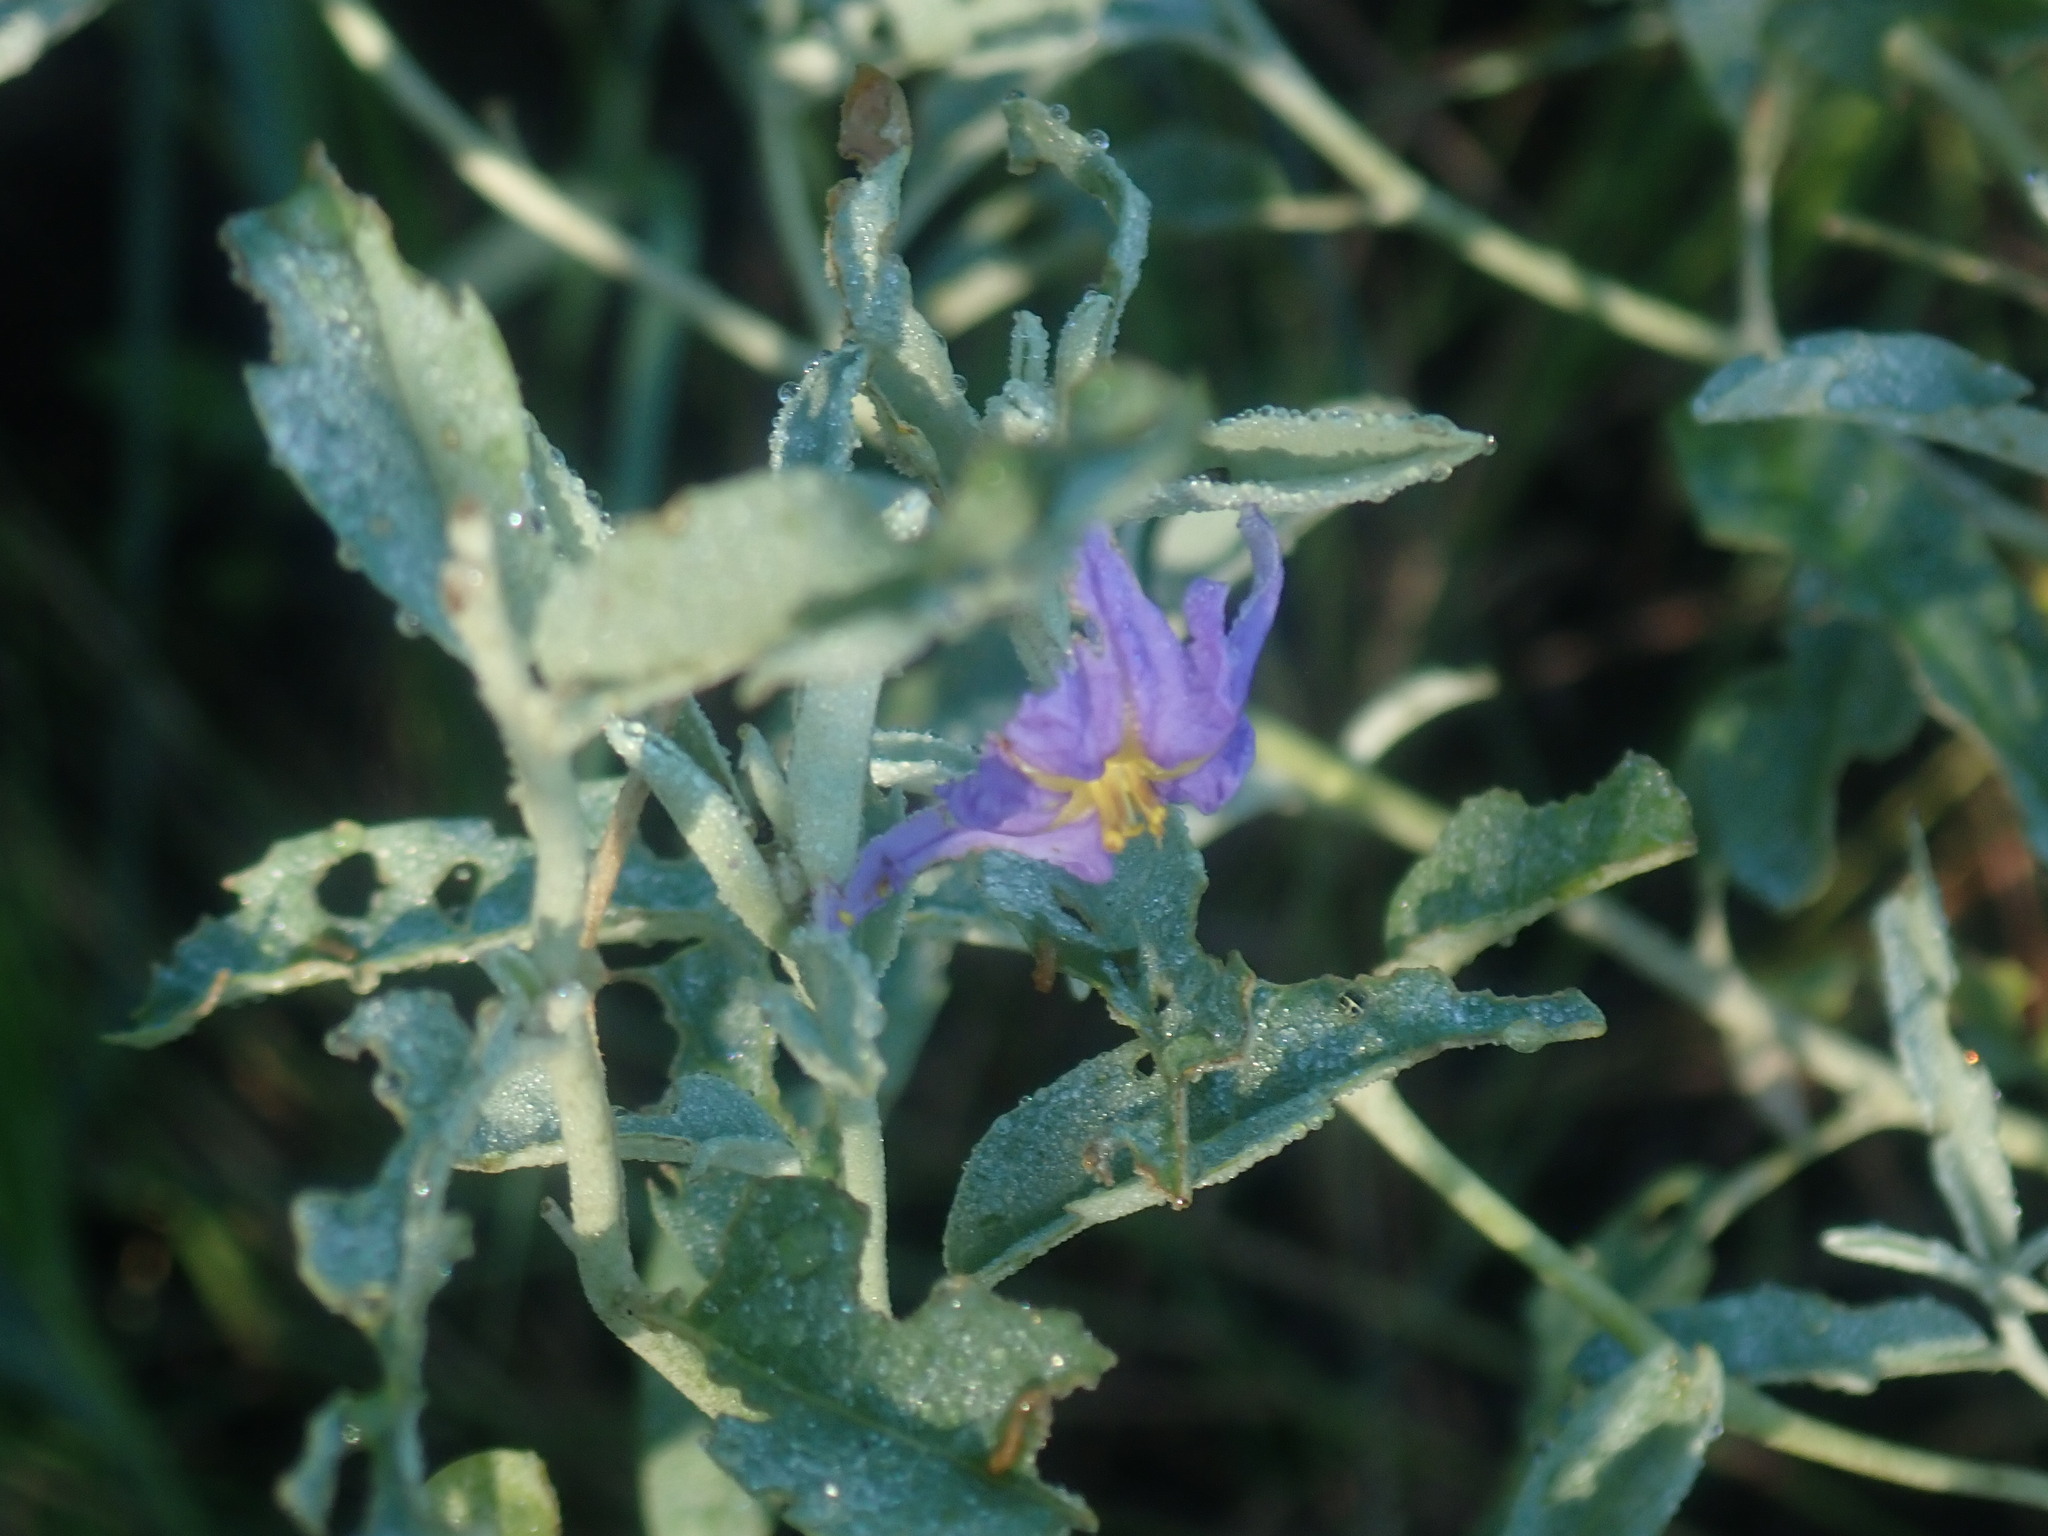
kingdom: Plantae
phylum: Tracheophyta
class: Magnoliopsida
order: Solanales
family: Solanaceae
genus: Solanum
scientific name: Solanum elaeagnifolium
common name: Silverleaf nightshade
